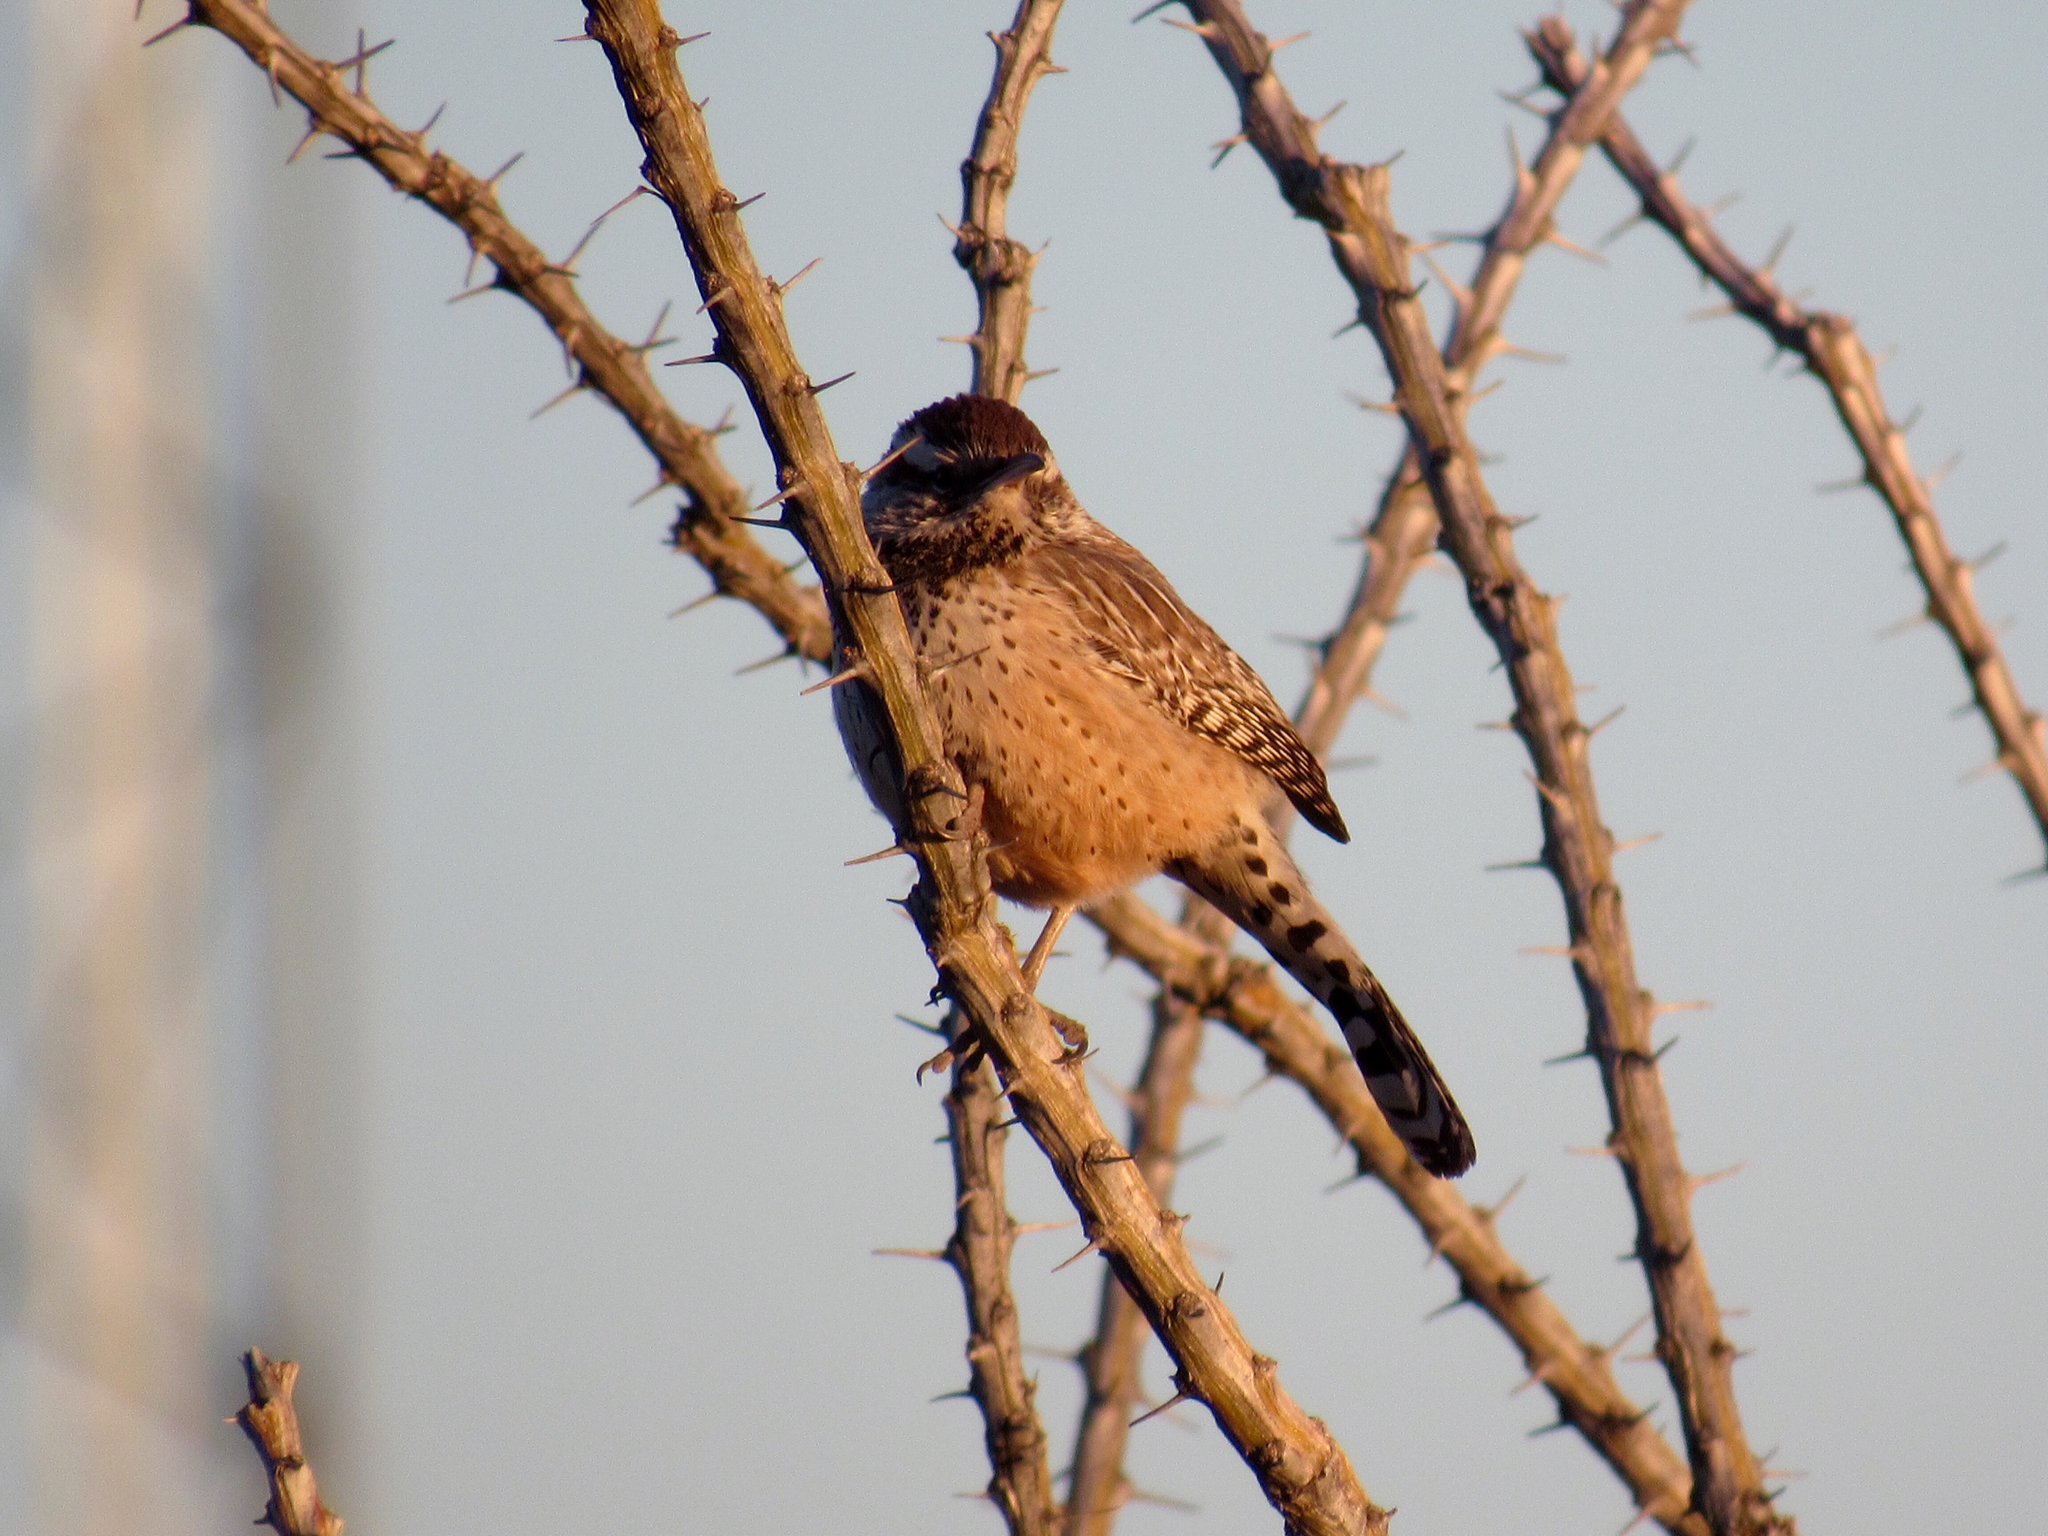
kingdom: Animalia
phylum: Chordata
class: Aves
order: Passeriformes
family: Troglodytidae
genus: Campylorhynchus
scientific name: Campylorhynchus brunneicapillus
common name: Cactus wren
